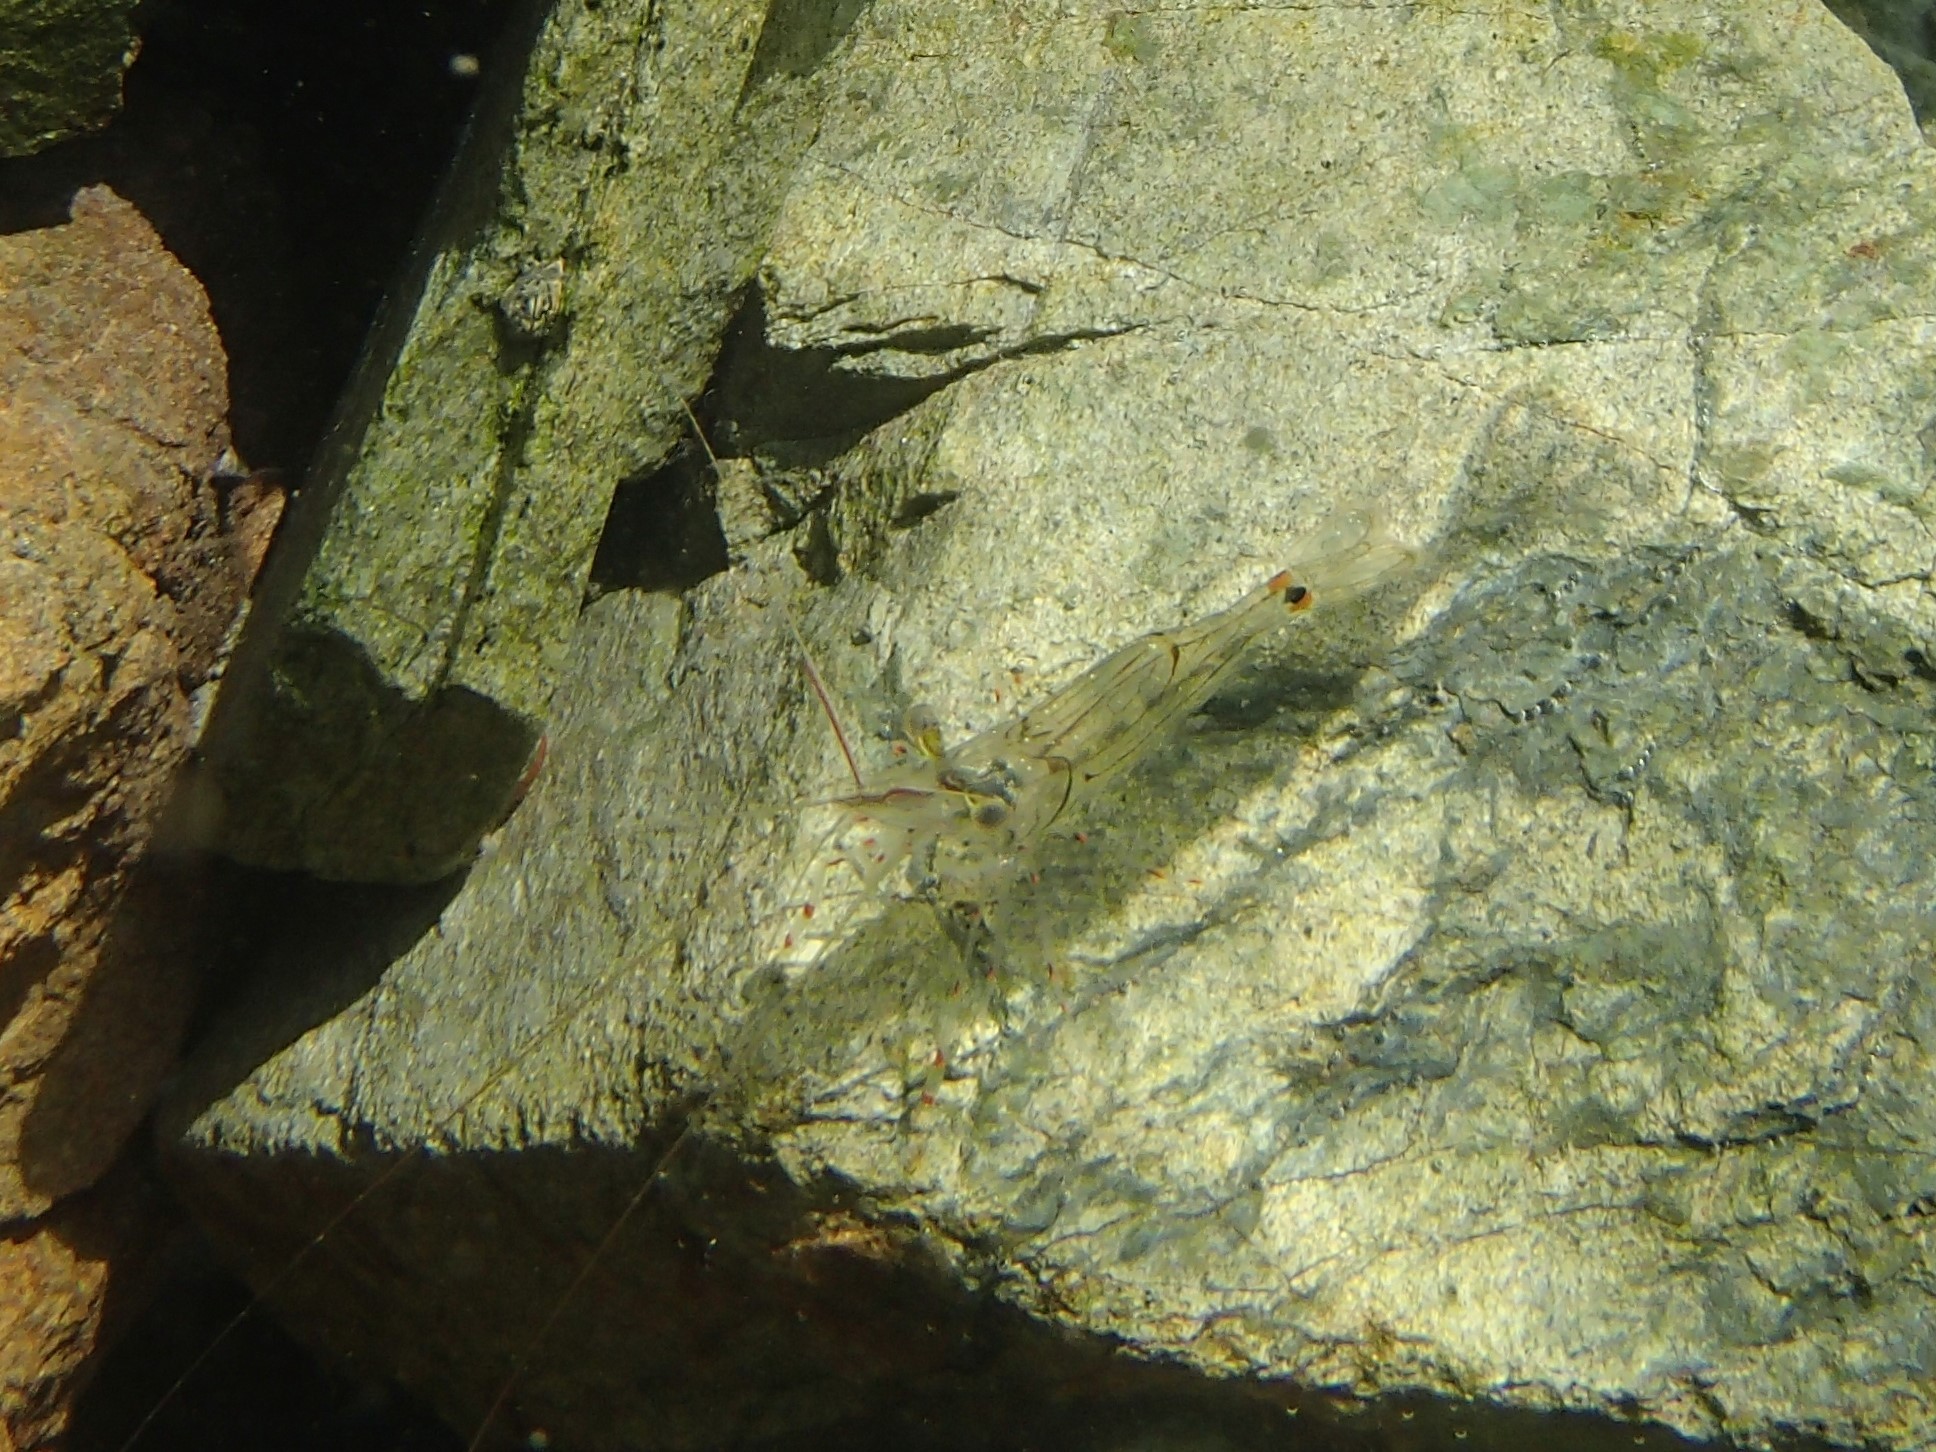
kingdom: Animalia
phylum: Arthropoda
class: Malacostraca
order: Decapoda
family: Palaemonidae
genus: Palaemon
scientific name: Palaemon affinis
